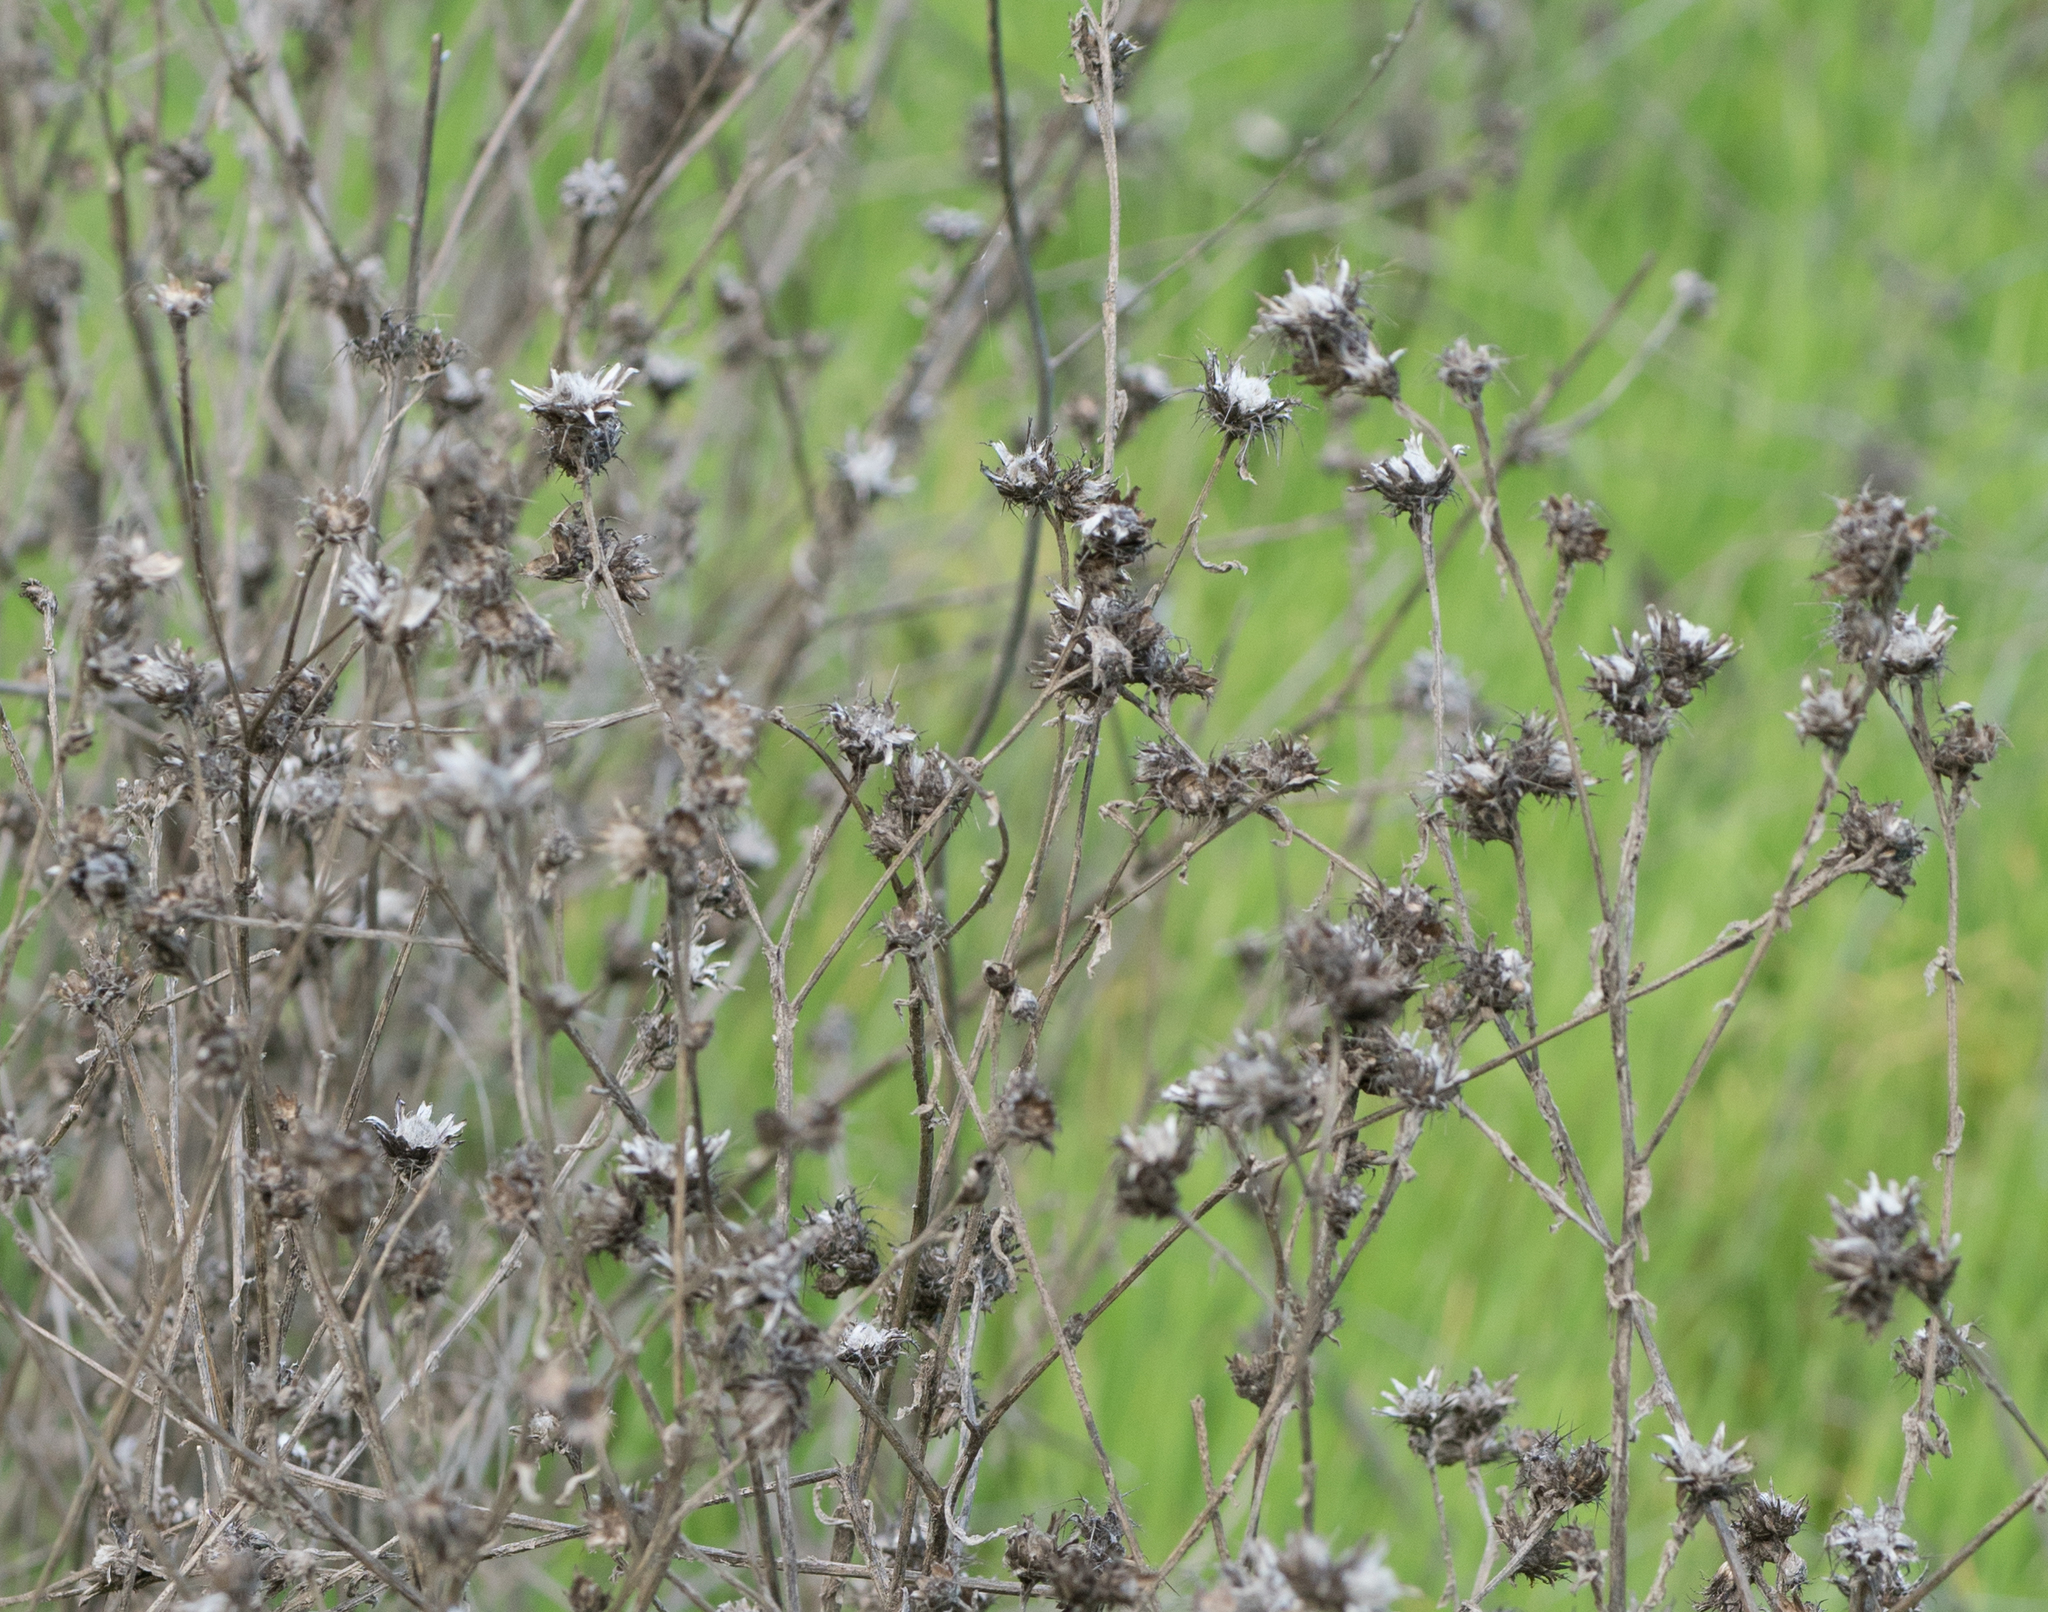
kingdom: Plantae
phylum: Tracheophyta
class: Magnoliopsida
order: Asterales
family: Asteraceae
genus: Centaurea
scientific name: Centaurea melitensis
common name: Maltese star-thistle
